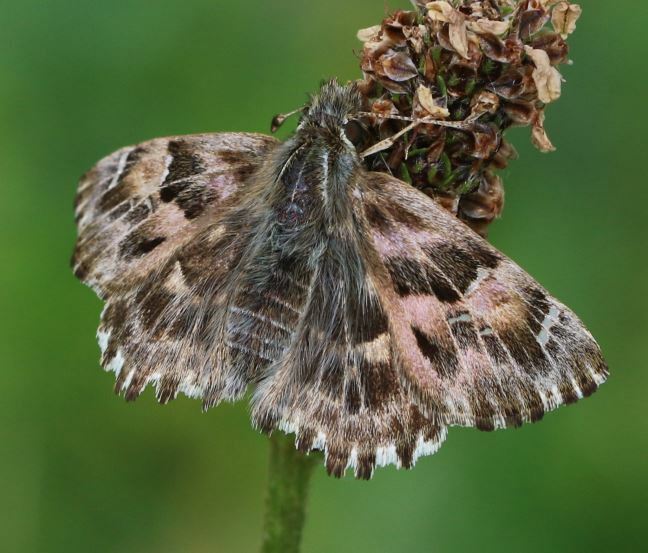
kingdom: Animalia
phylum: Arthropoda
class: Insecta
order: Lepidoptera
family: Hesperiidae
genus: Carcharodus
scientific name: Carcharodus alceae
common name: Mallow skipper
